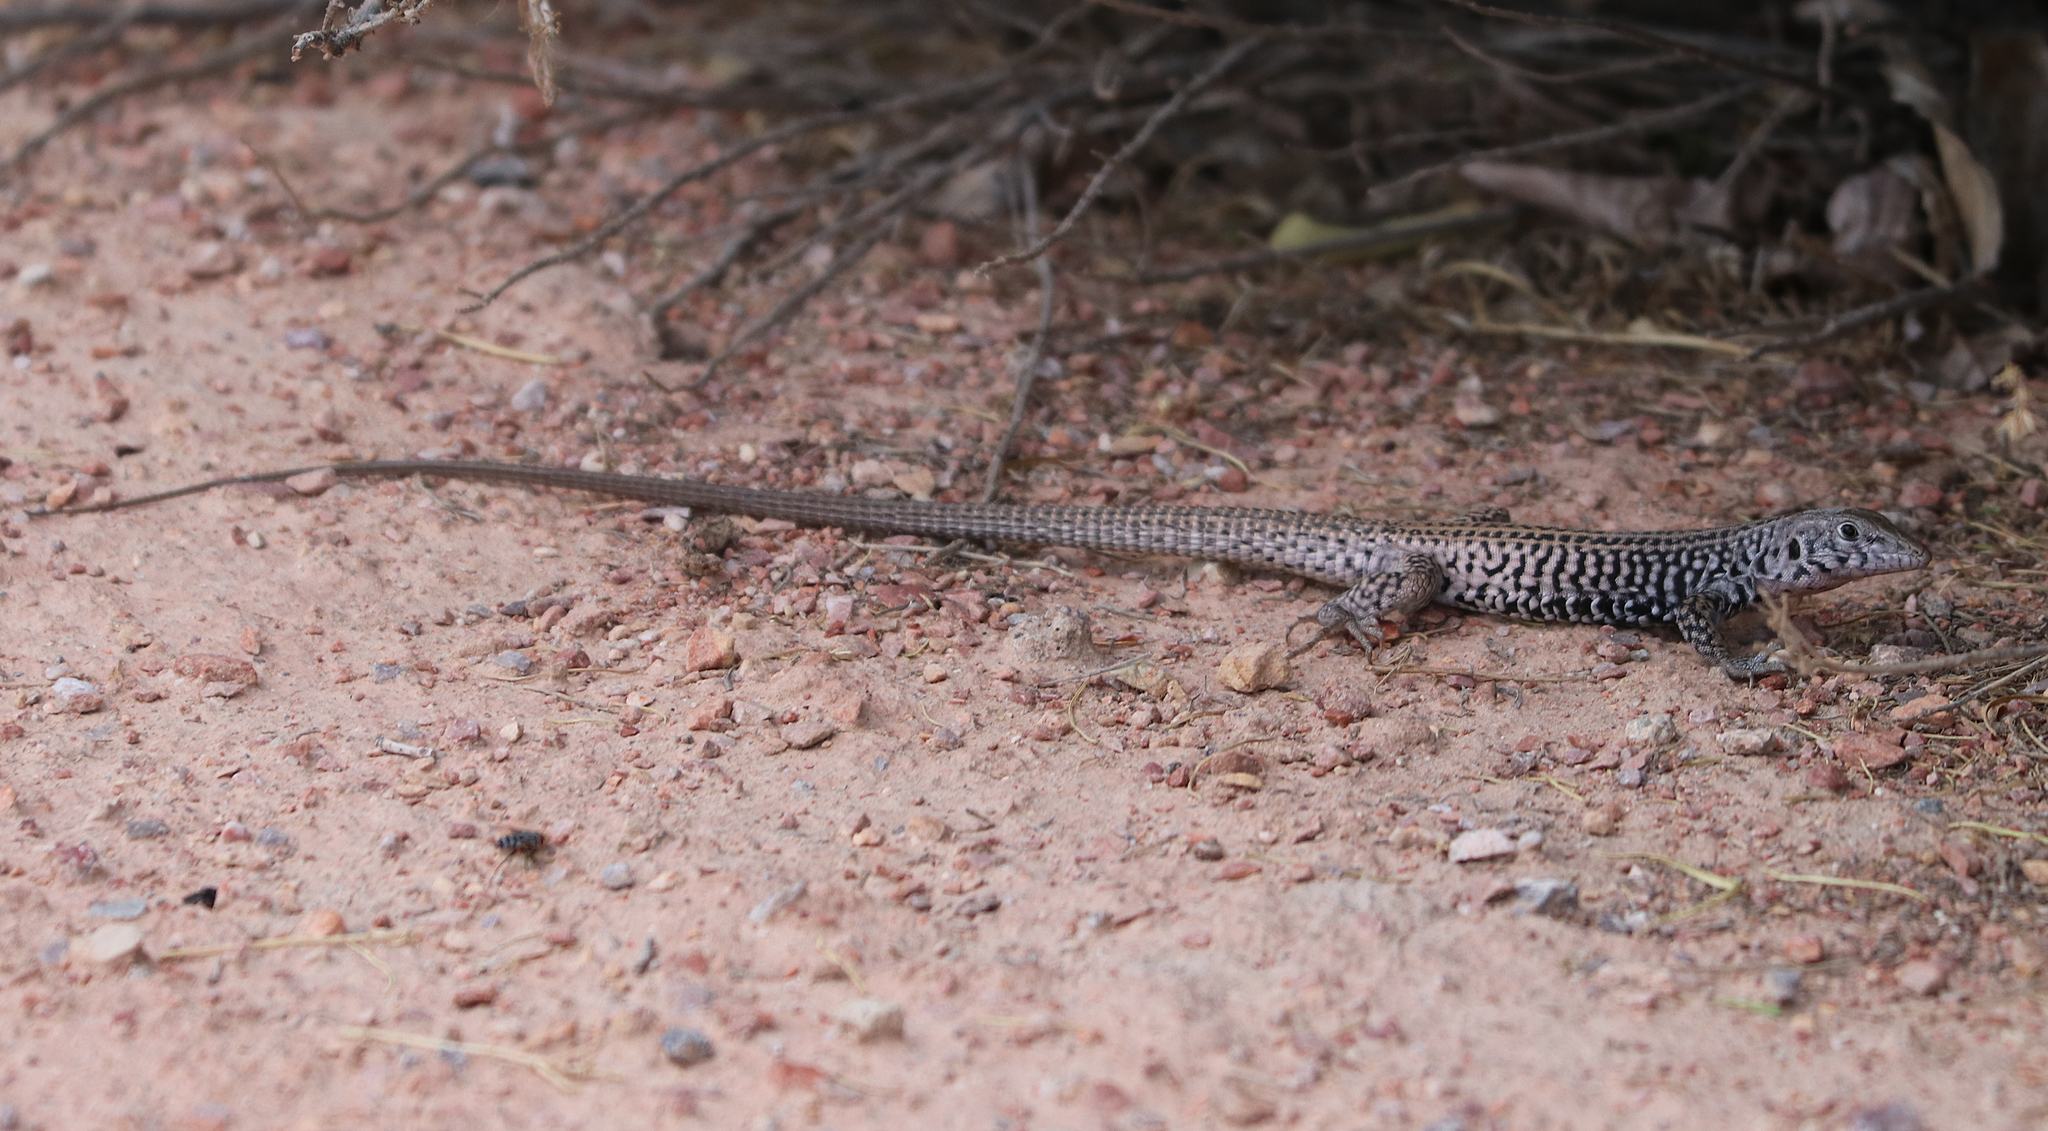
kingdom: Animalia
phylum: Chordata
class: Squamata
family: Teiidae
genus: Aspidoscelis
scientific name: Aspidoscelis tigris
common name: Tiger whiptail
